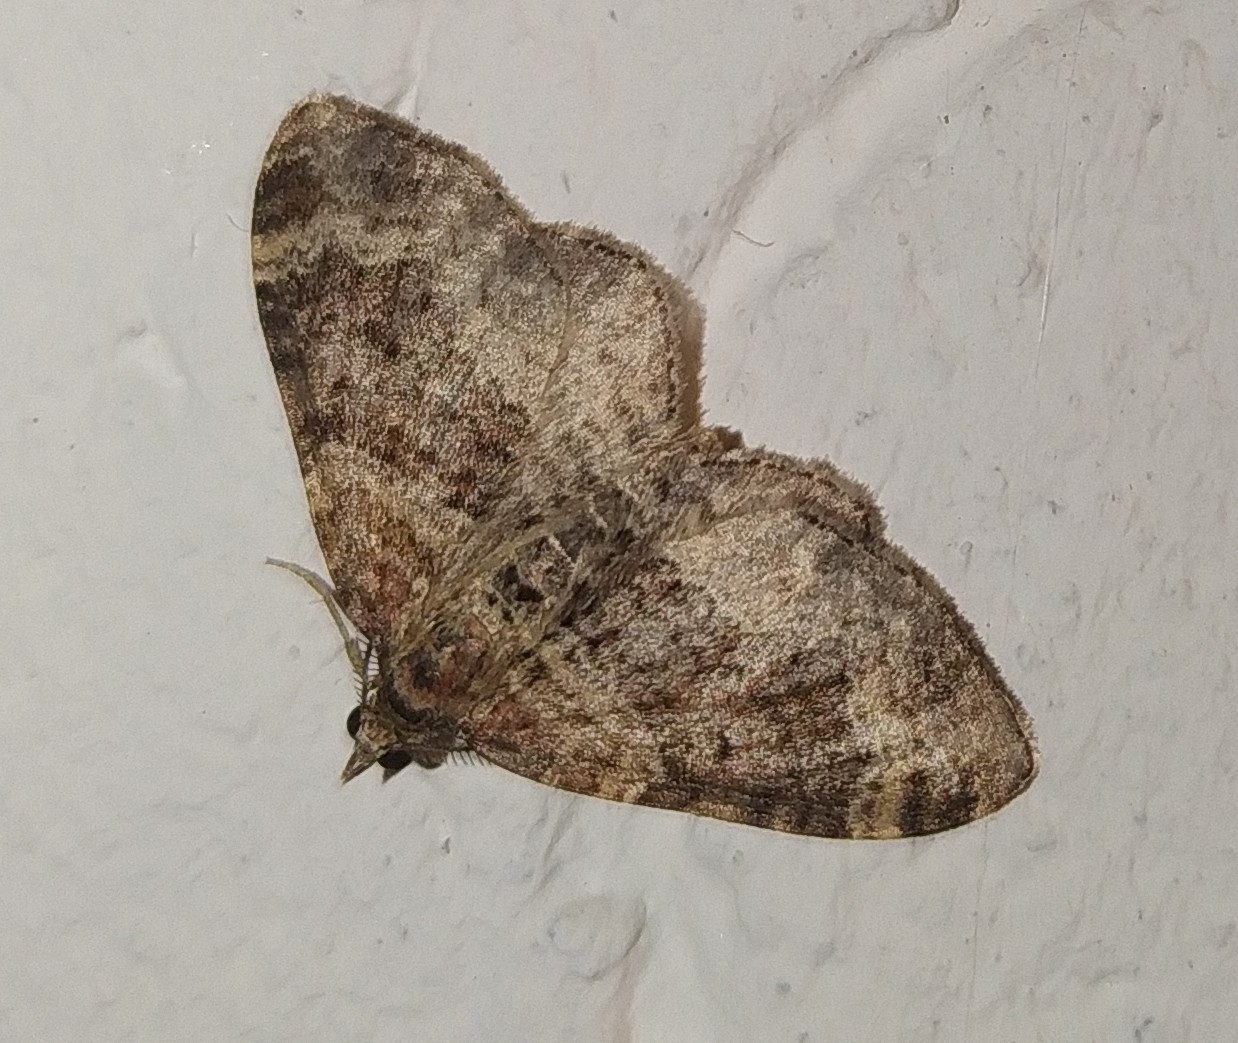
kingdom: Animalia
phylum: Arthropoda
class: Insecta
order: Lepidoptera
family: Geometridae
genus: Xanthorhoe
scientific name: Xanthorhoe ferrugata
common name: Dark-barred twin-spot carpet
